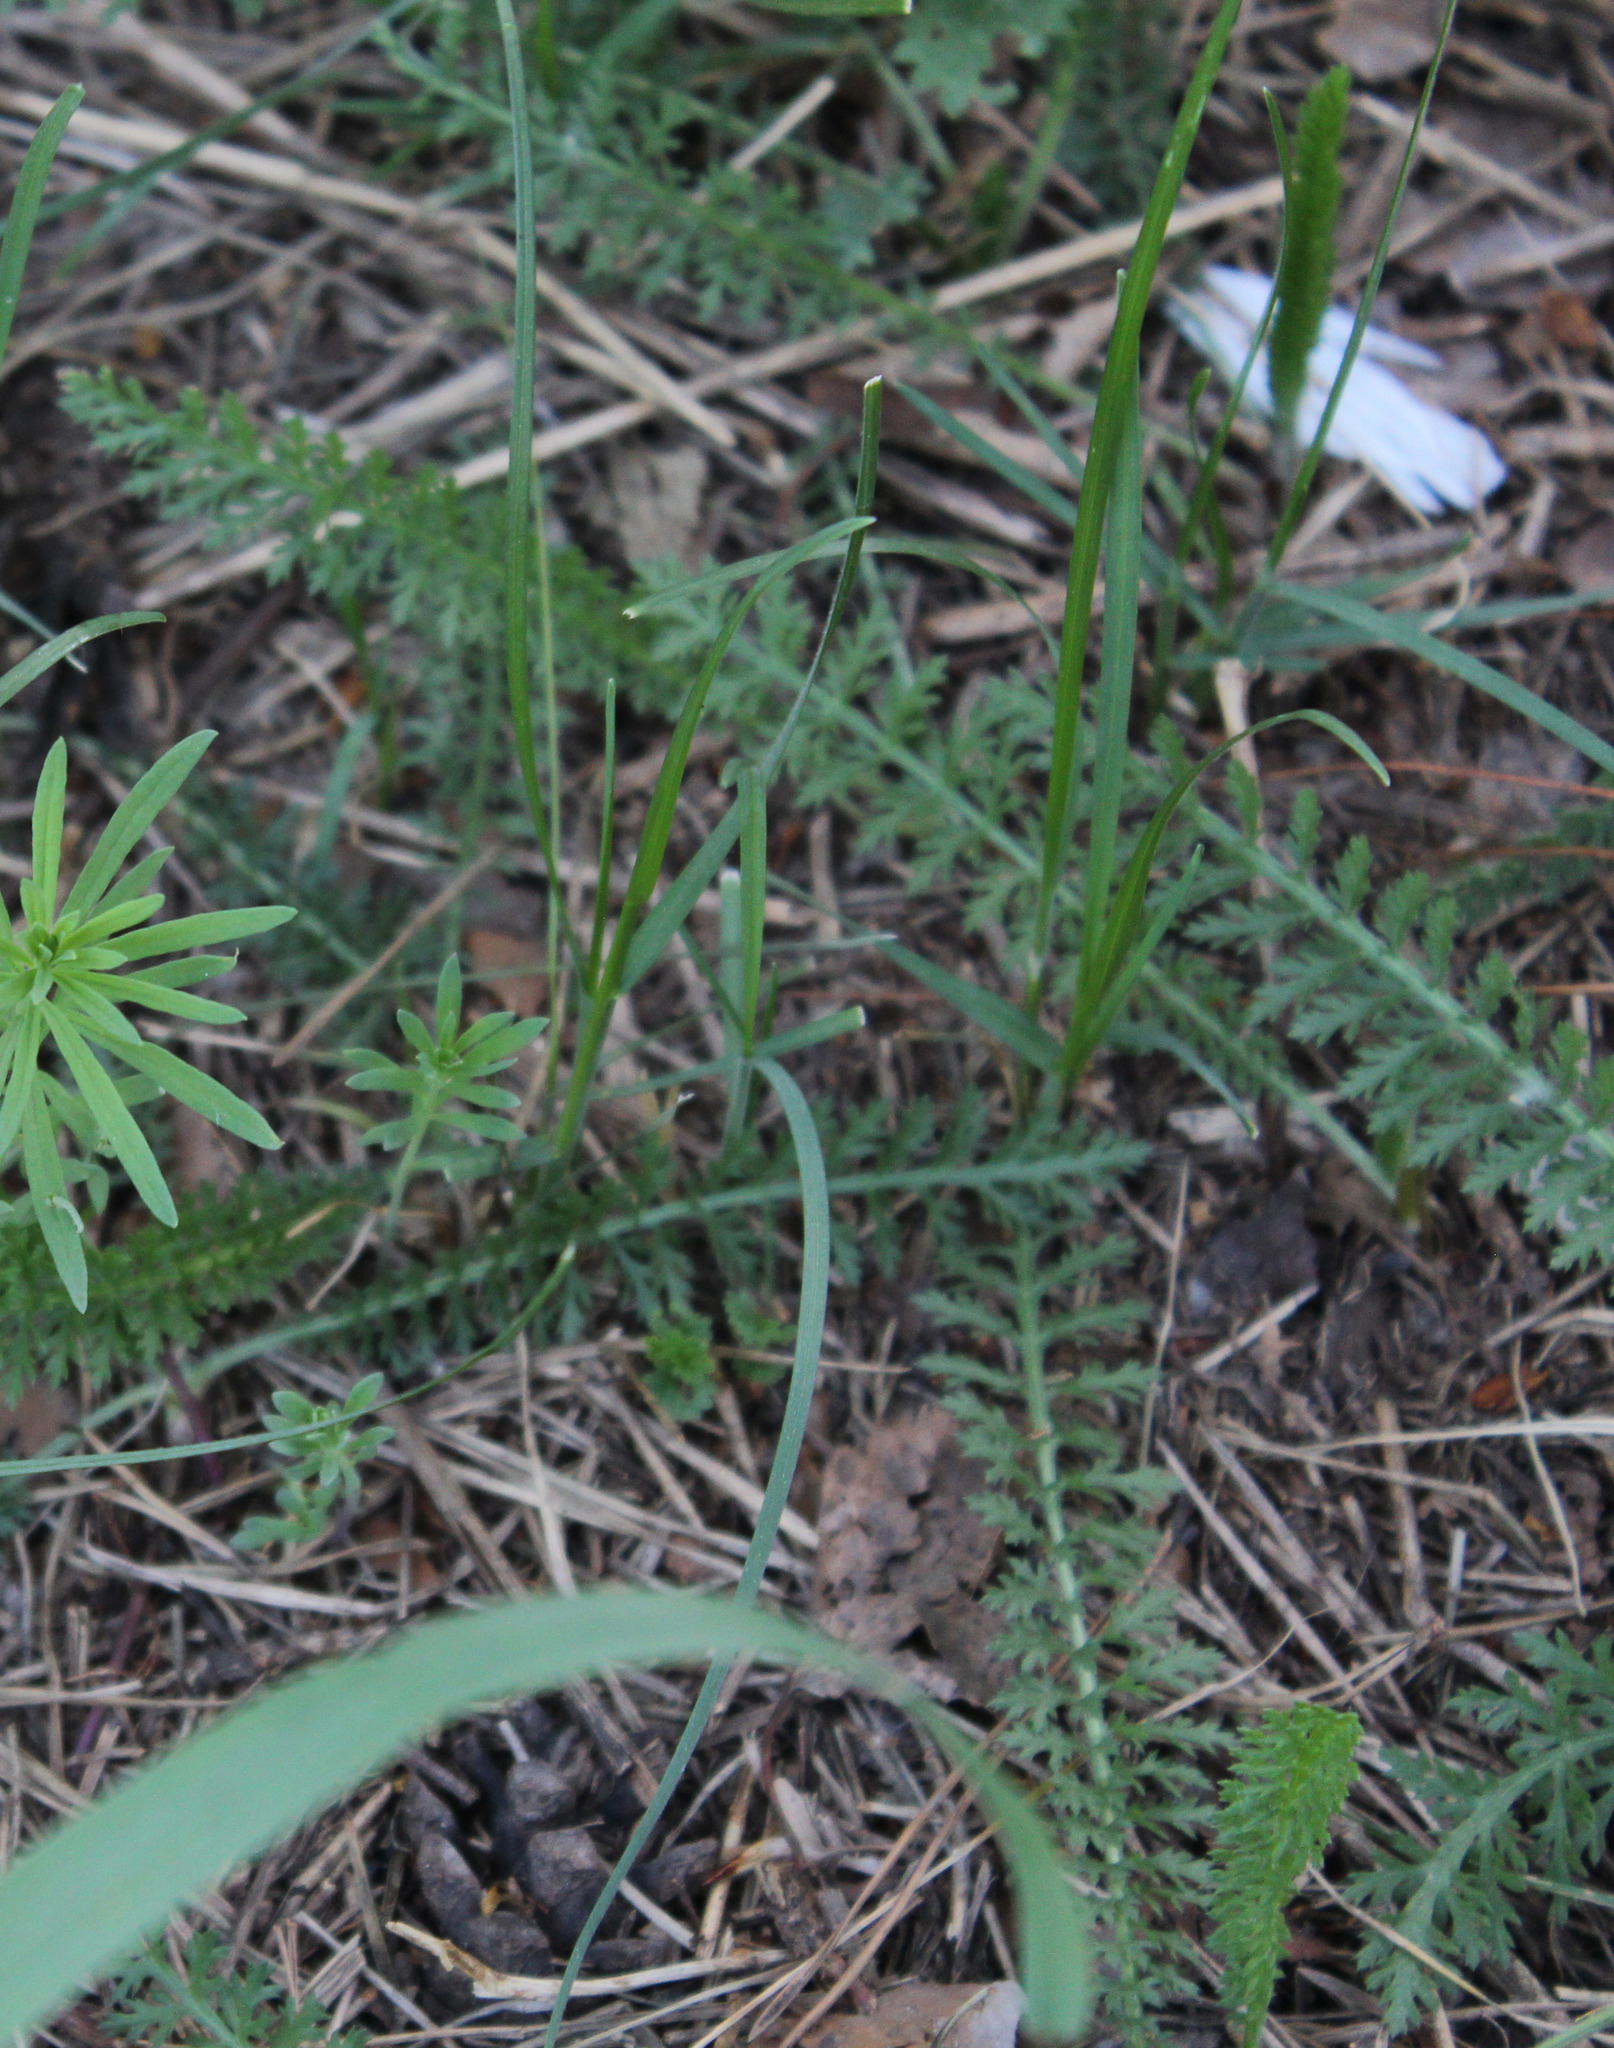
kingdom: Plantae
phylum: Tracheophyta
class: Magnoliopsida
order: Asterales
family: Asteraceae
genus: Achillea
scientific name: Achillea millefolium
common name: Yarrow
